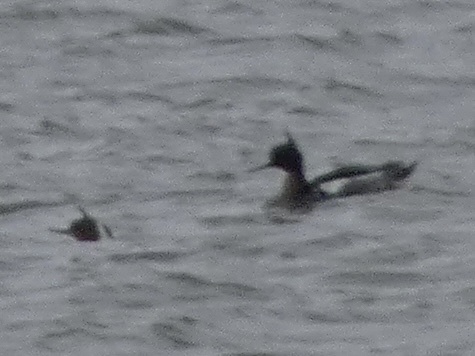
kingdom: Animalia
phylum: Chordata
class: Aves
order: Anseriformes
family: Anatidae
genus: Mergus
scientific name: Mergus serrator
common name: Red-breasted merganser
